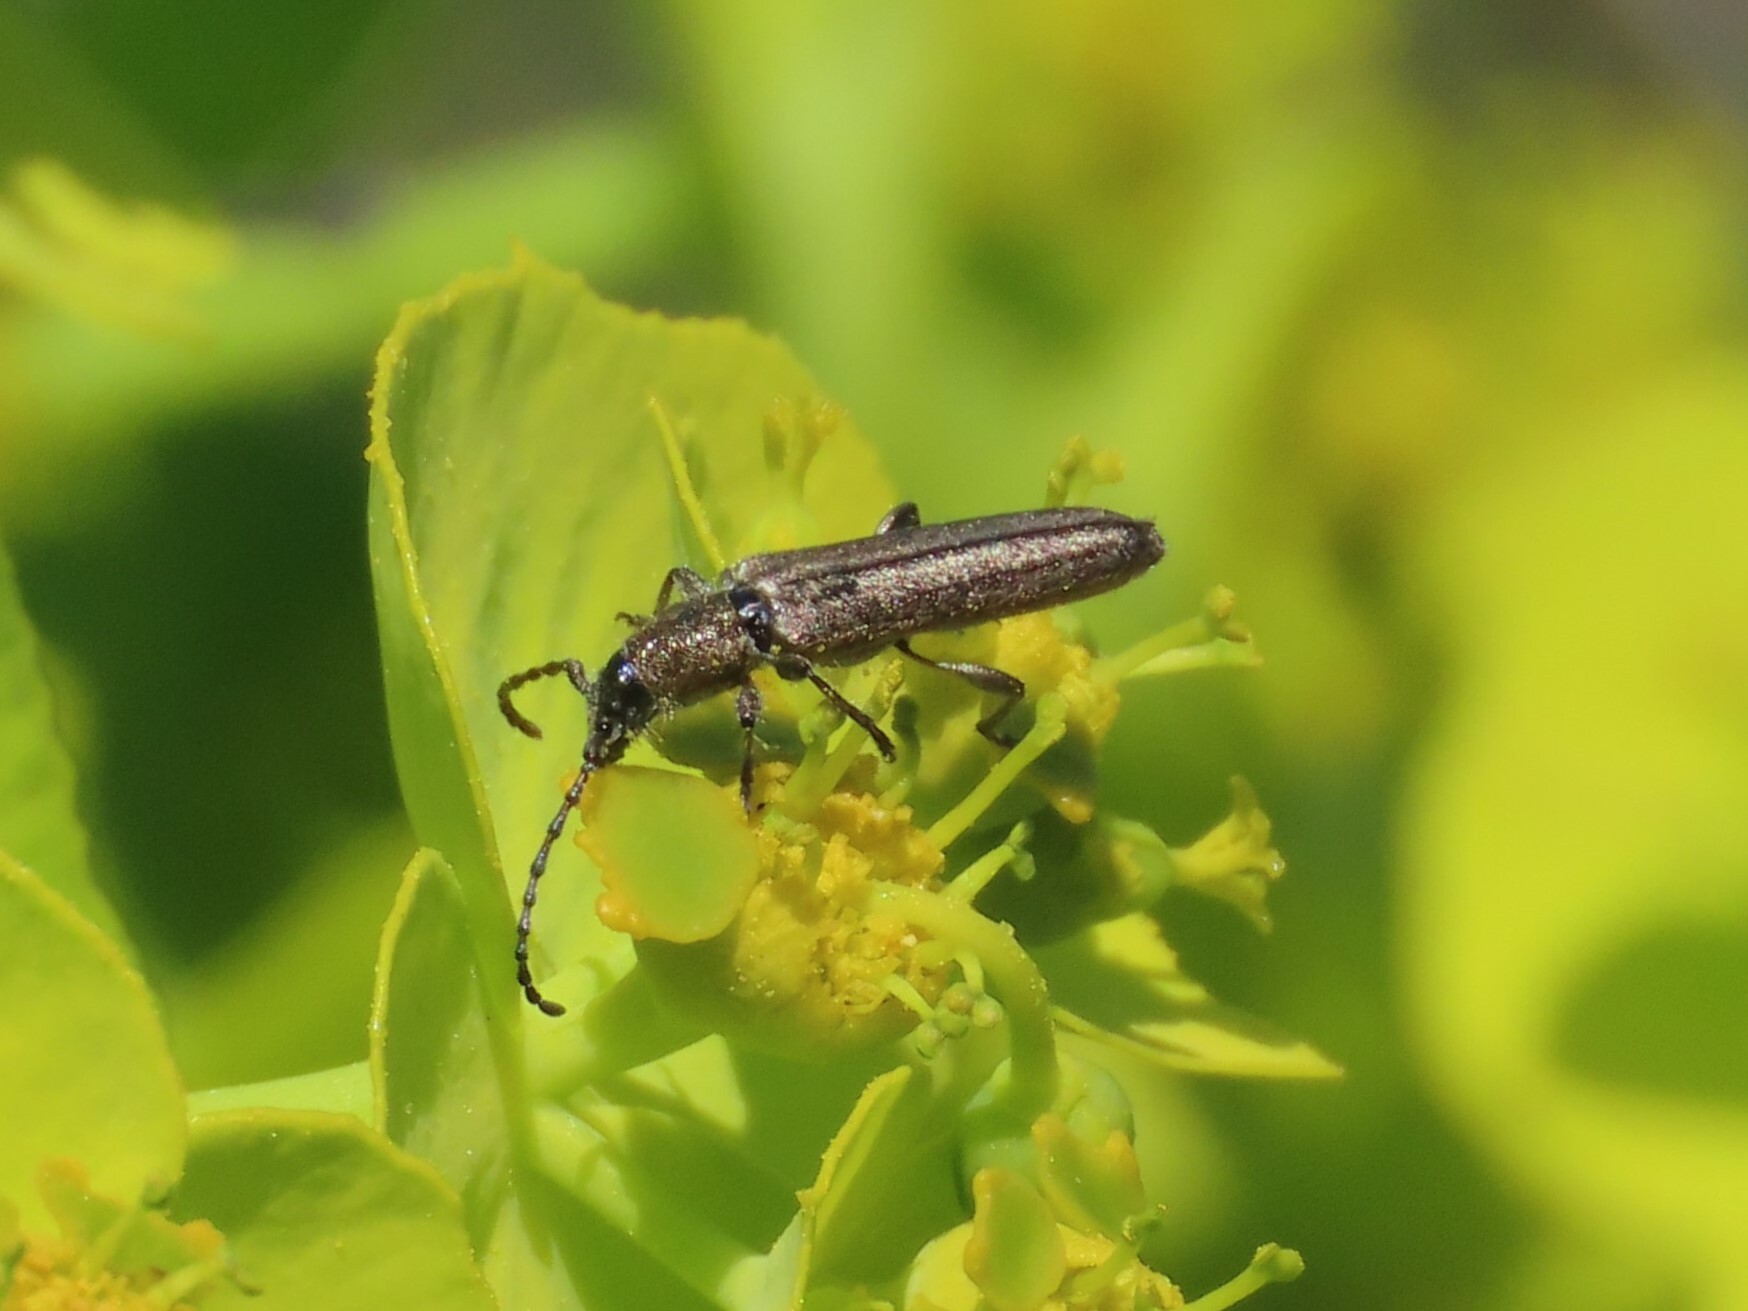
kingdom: Animalia
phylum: Arthropoda
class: Insecta
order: Coleoptera
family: Cerambycidae
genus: Deilus
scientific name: Deilus fugax
